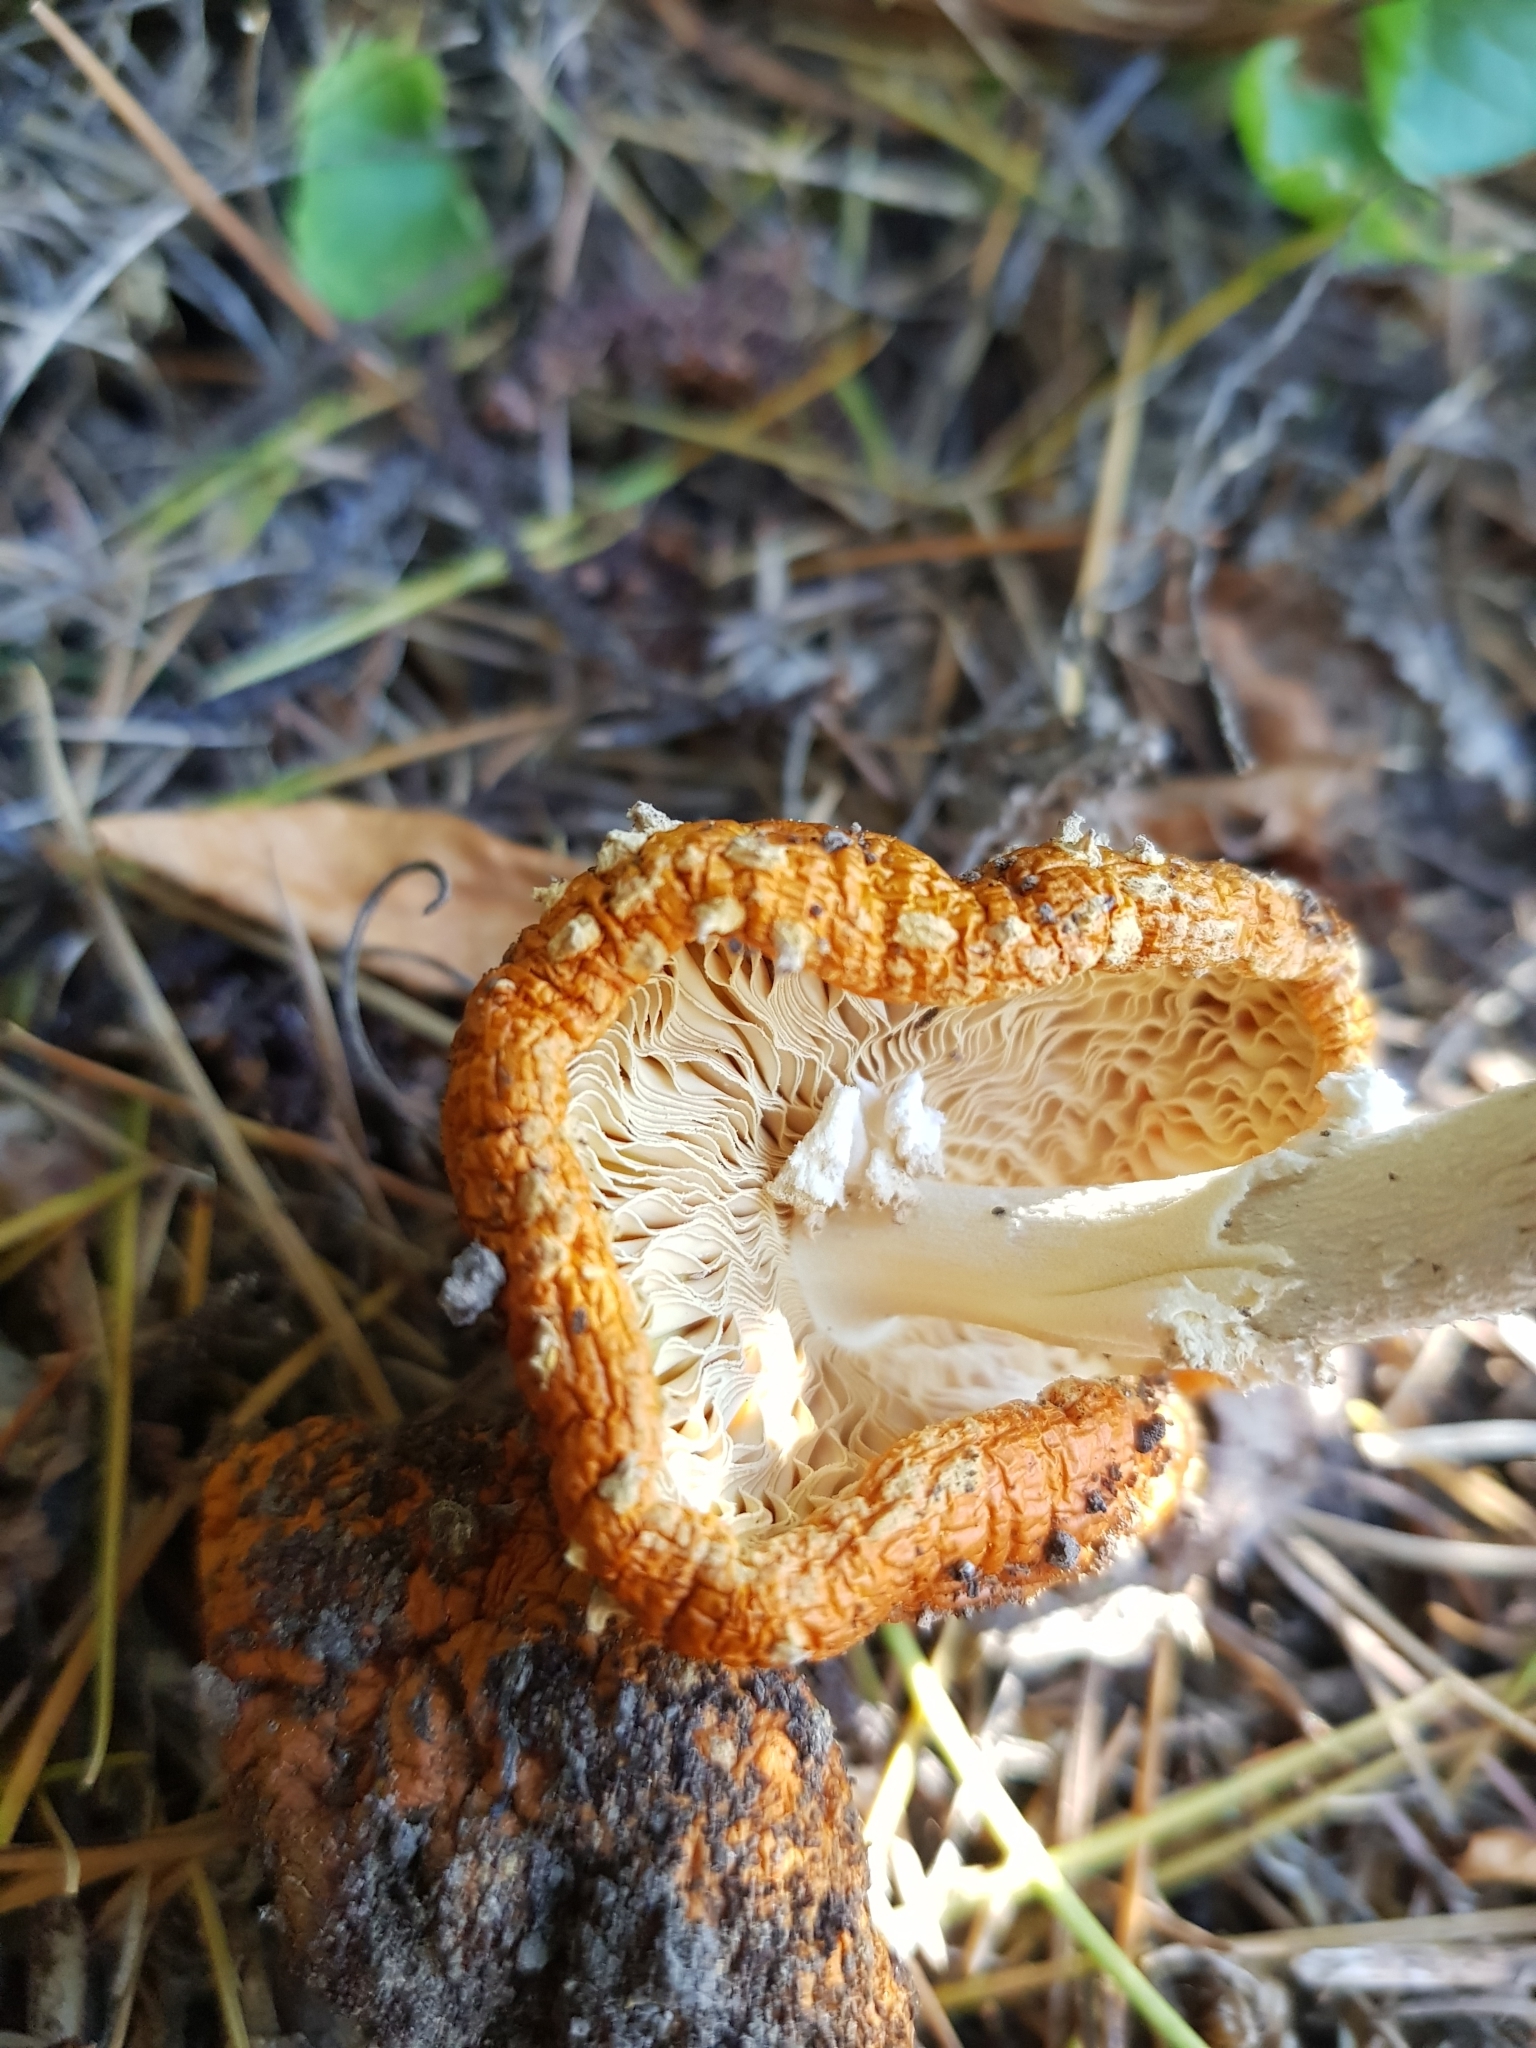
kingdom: Fungi
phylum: Basidiomycota
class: Agaricomycetes
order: Agaricales
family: Amanitaceae
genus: Amanita
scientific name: Amanita muscaria
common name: Fly agaric
